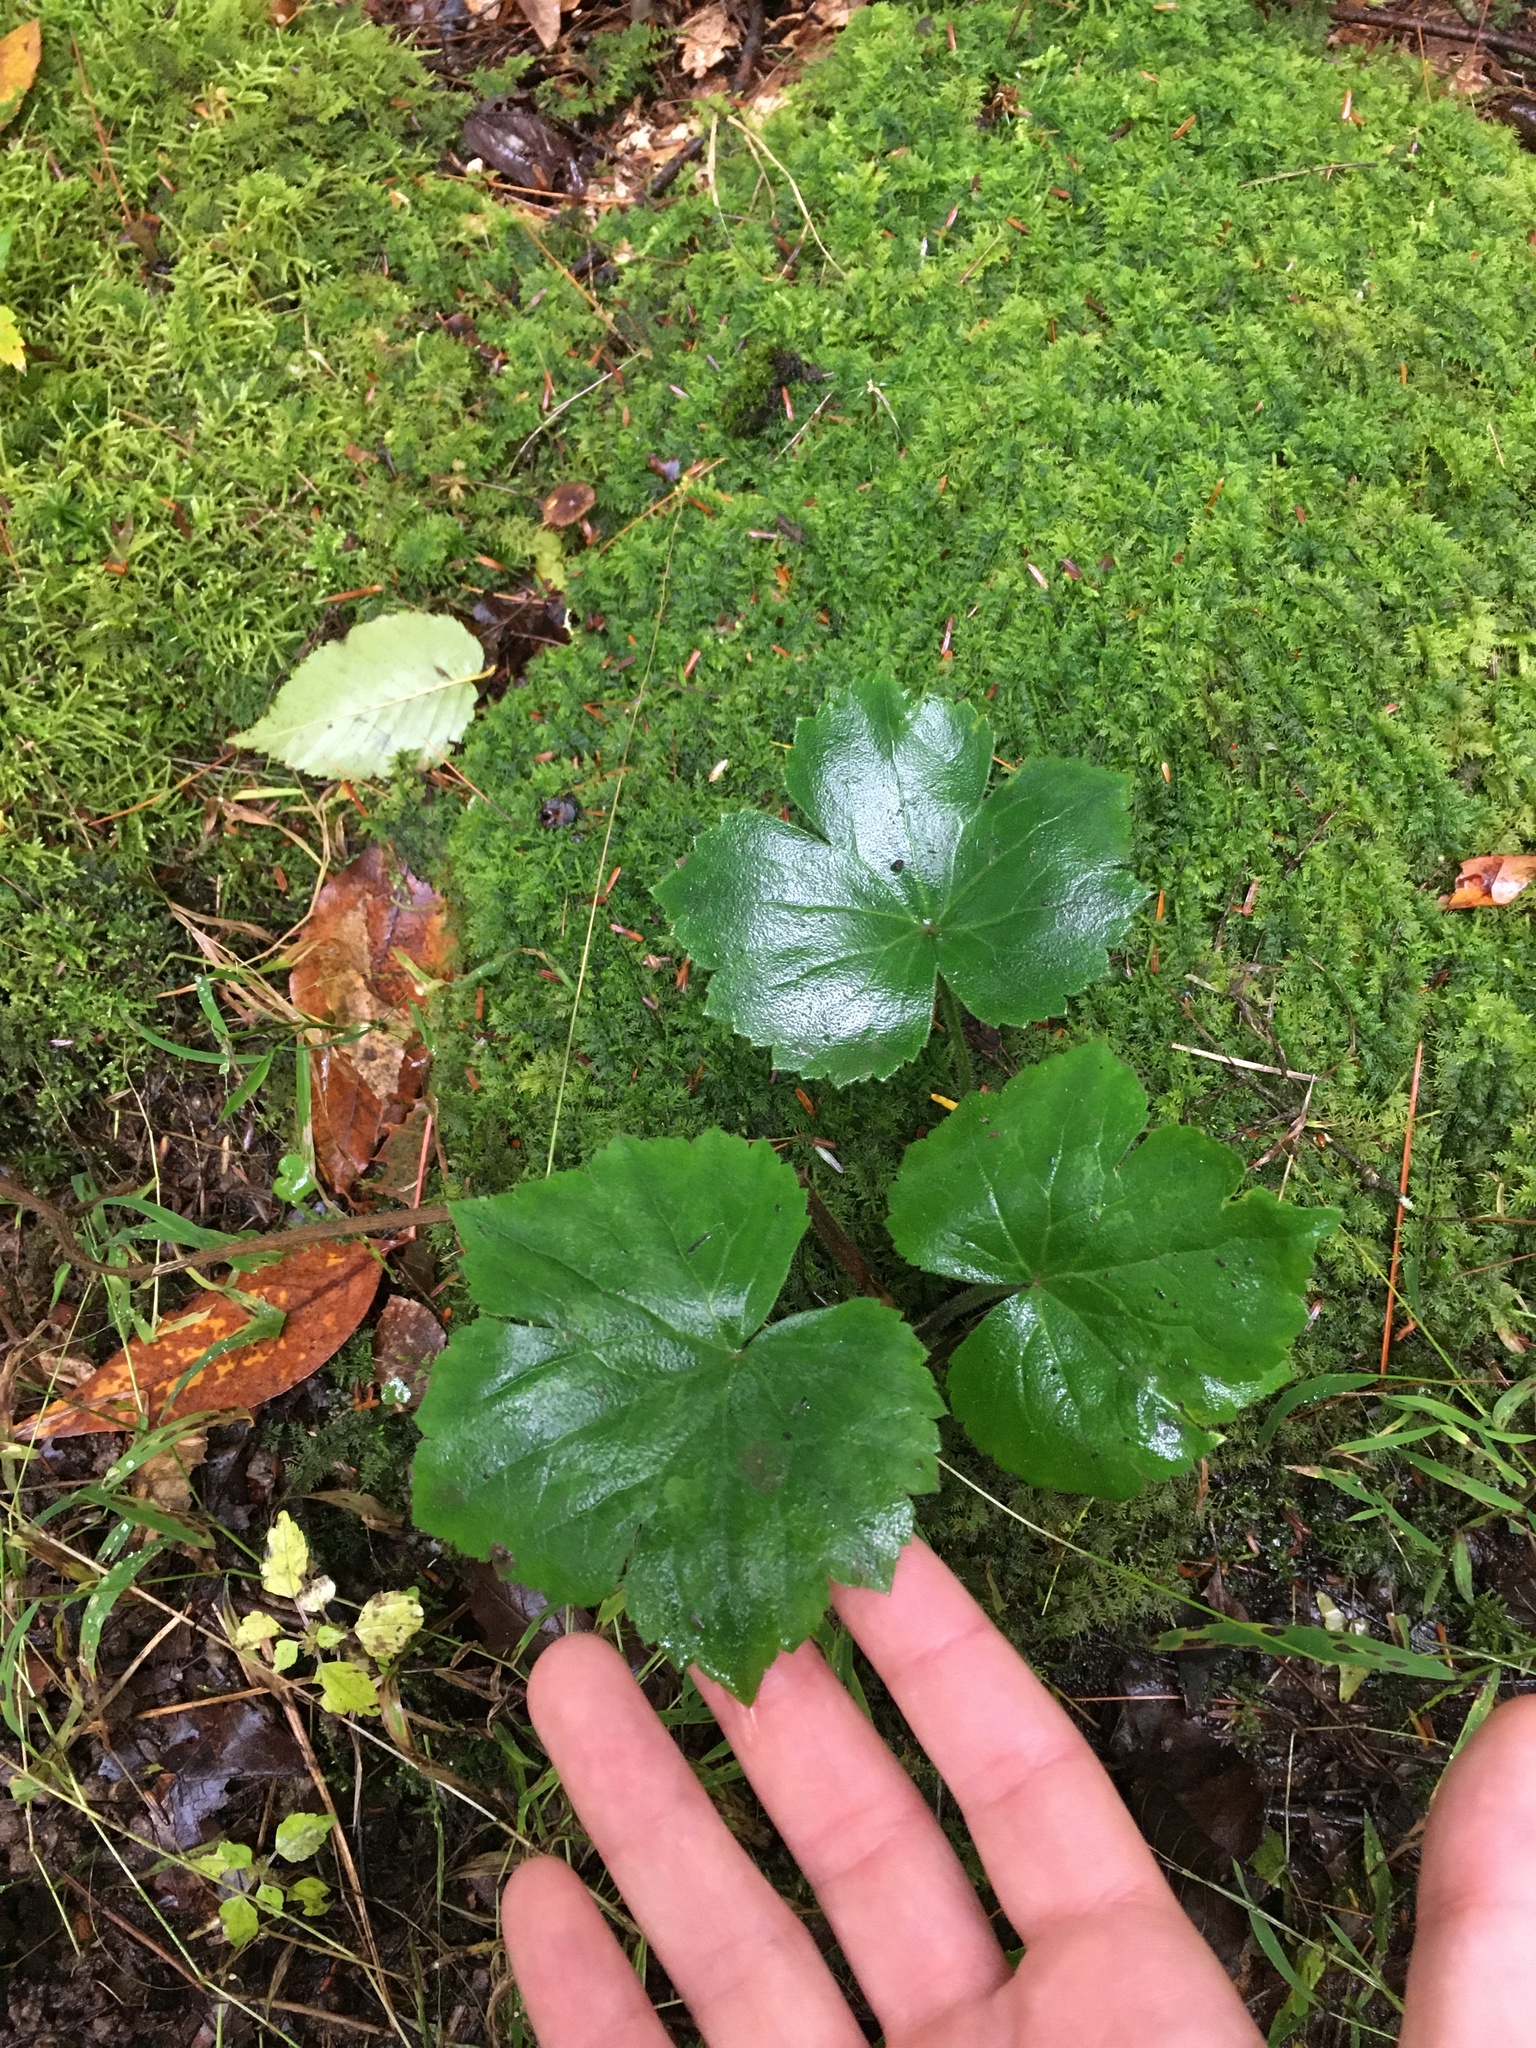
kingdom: Plantae
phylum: Tracheophyta
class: Magnoliopsida
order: Ranunculales
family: Ranunculaceae
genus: Ranunculus
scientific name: Ranunculus recurvatus
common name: Blisterwort
